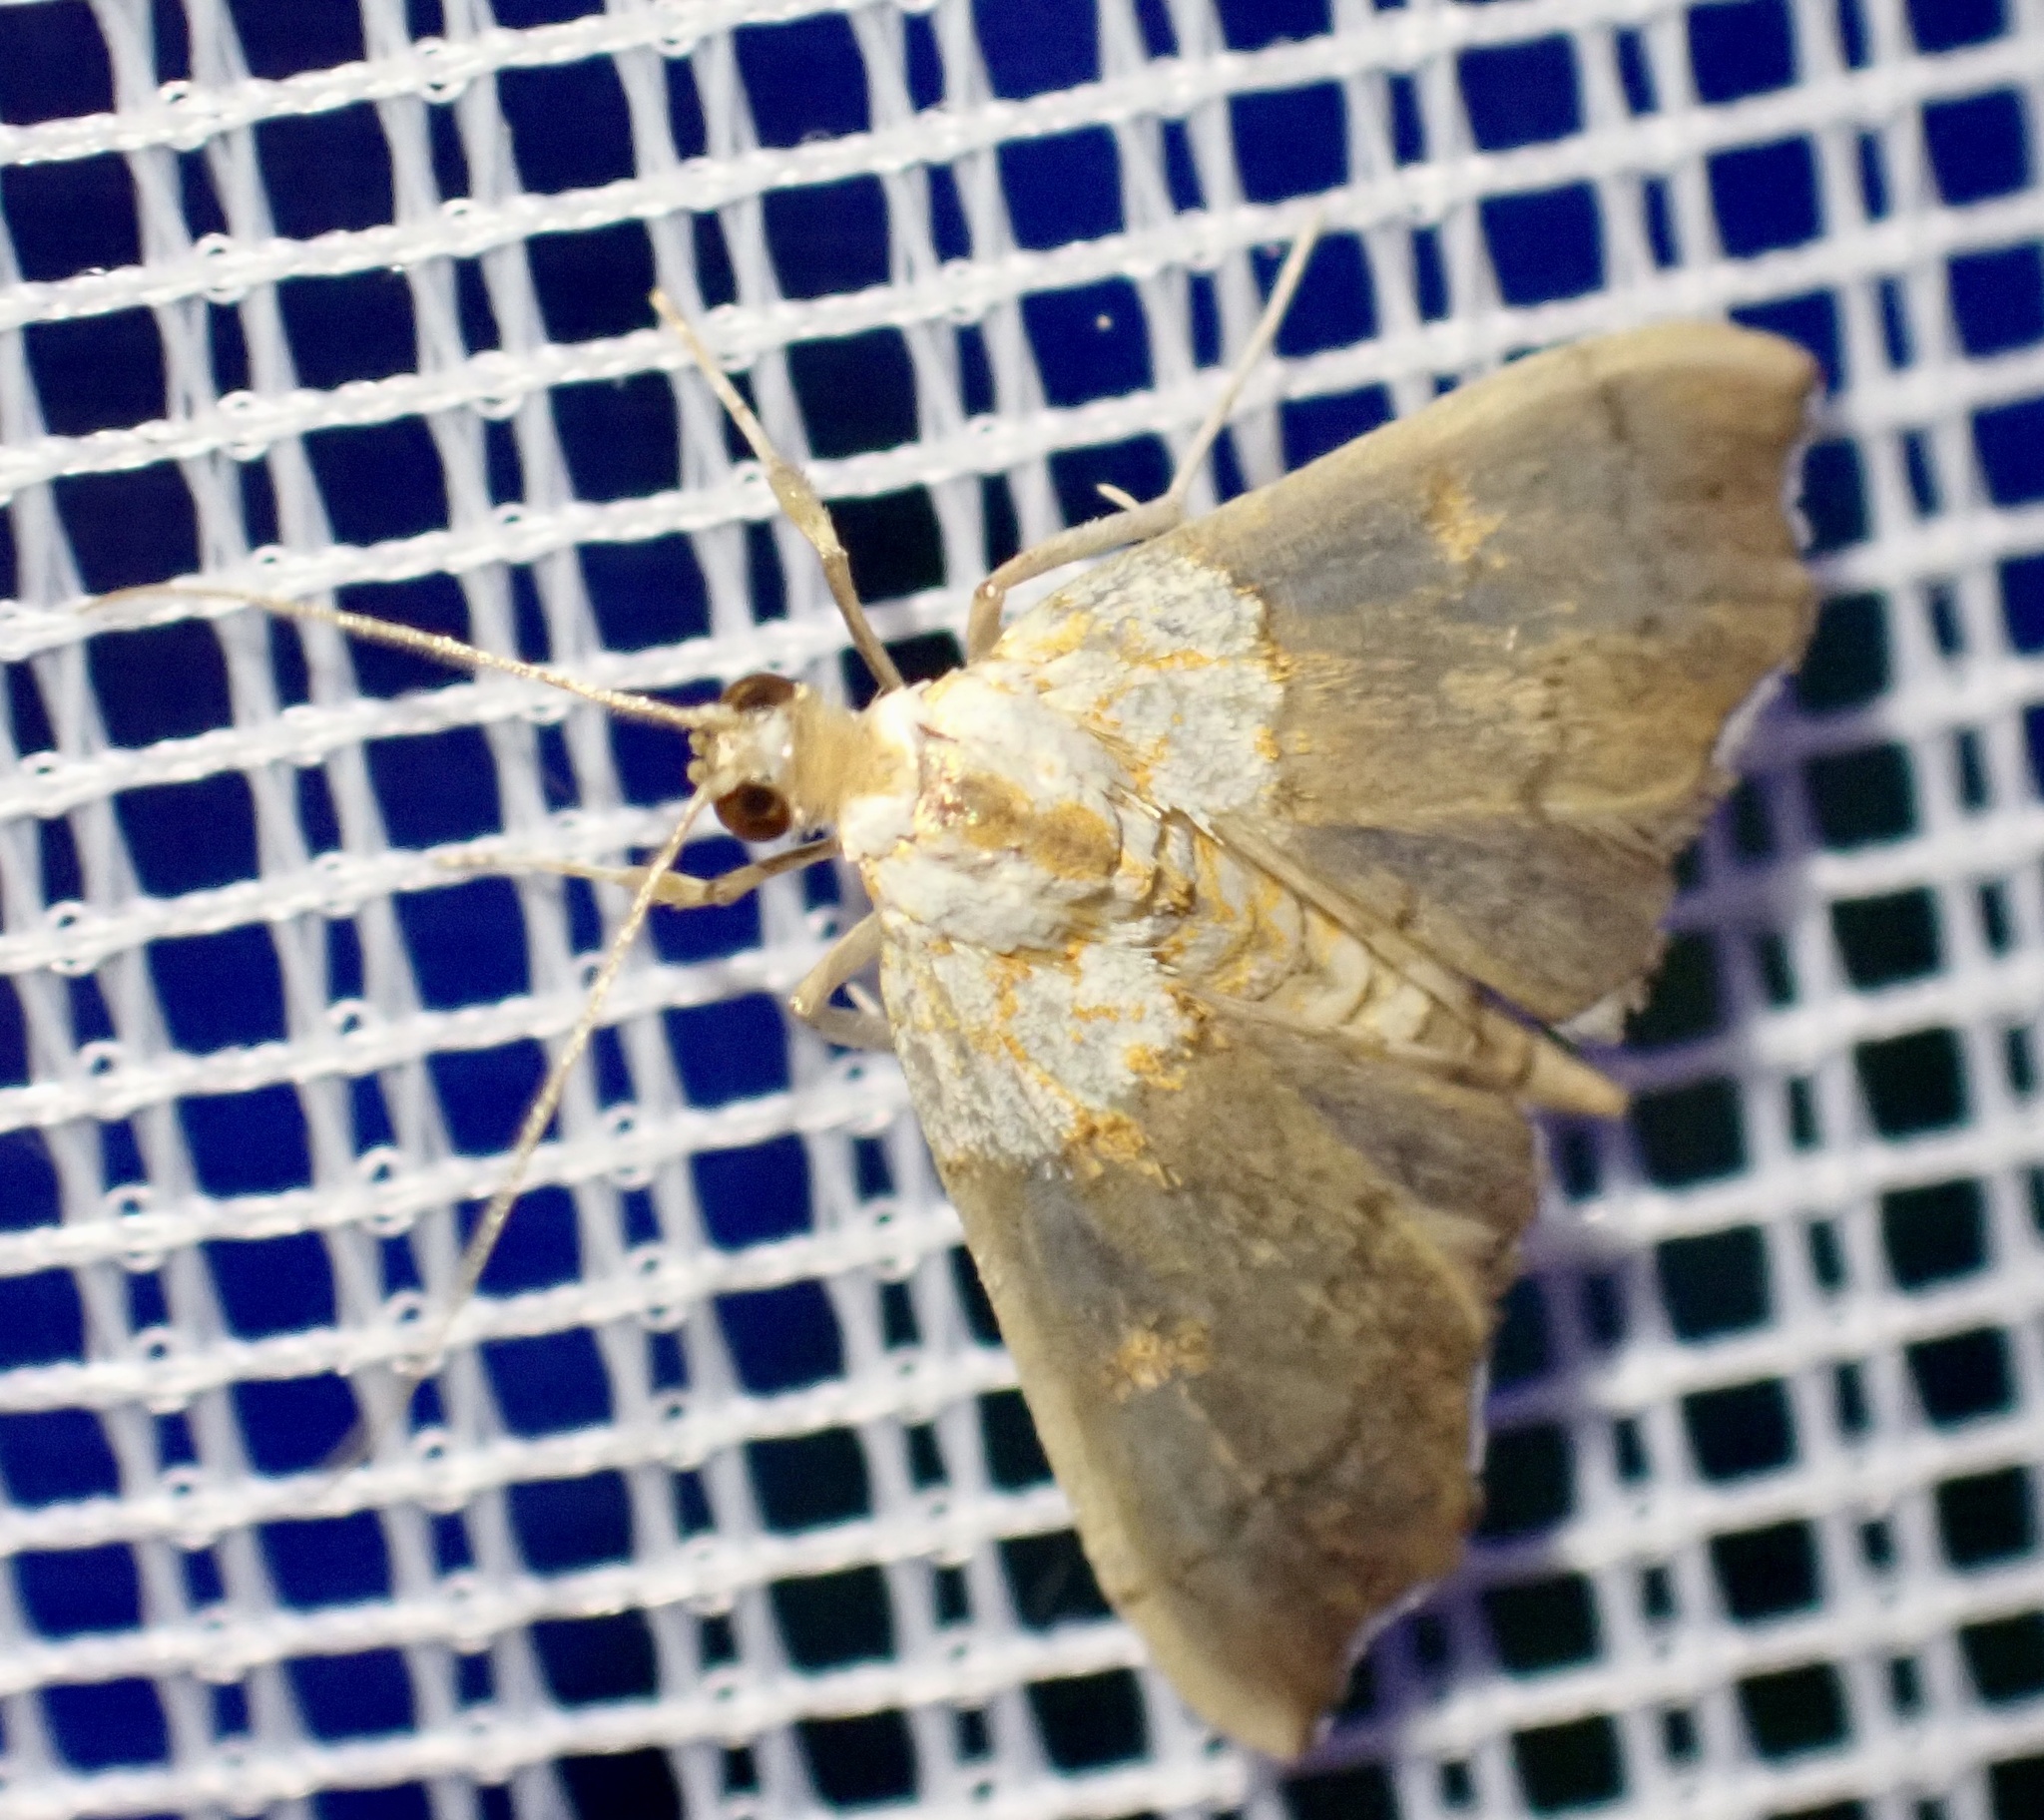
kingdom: Animalia
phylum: Arthropoda
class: Insecta
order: Lepidoptera
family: Crambidae
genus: Agrotera
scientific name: Agrotera nemoralis
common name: Beautiful pearl
